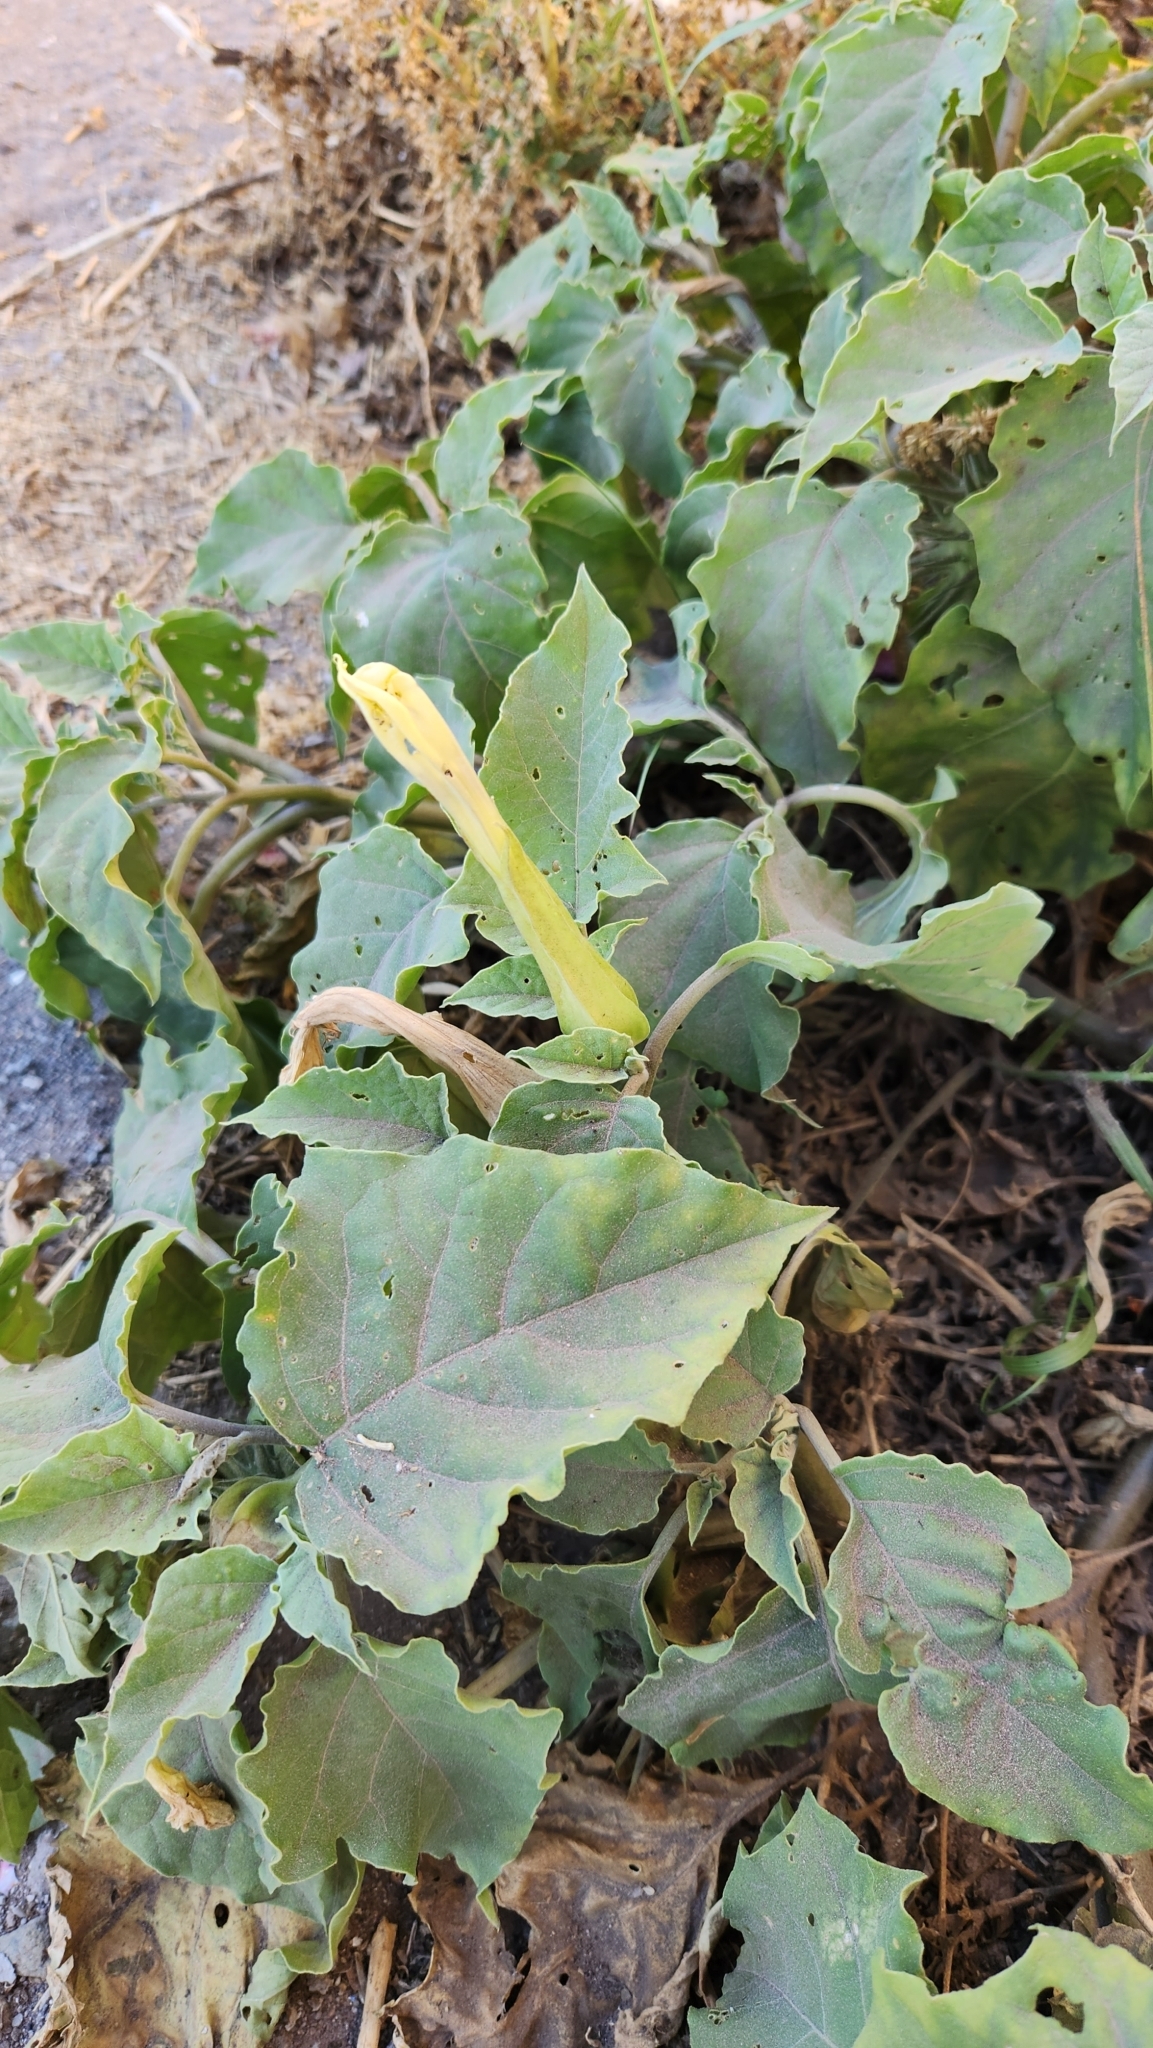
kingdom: Plantae
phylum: Tracheophyta
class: Magnoliopsida
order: Solanales
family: Solanaceae
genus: Datura
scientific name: Datura discolor
